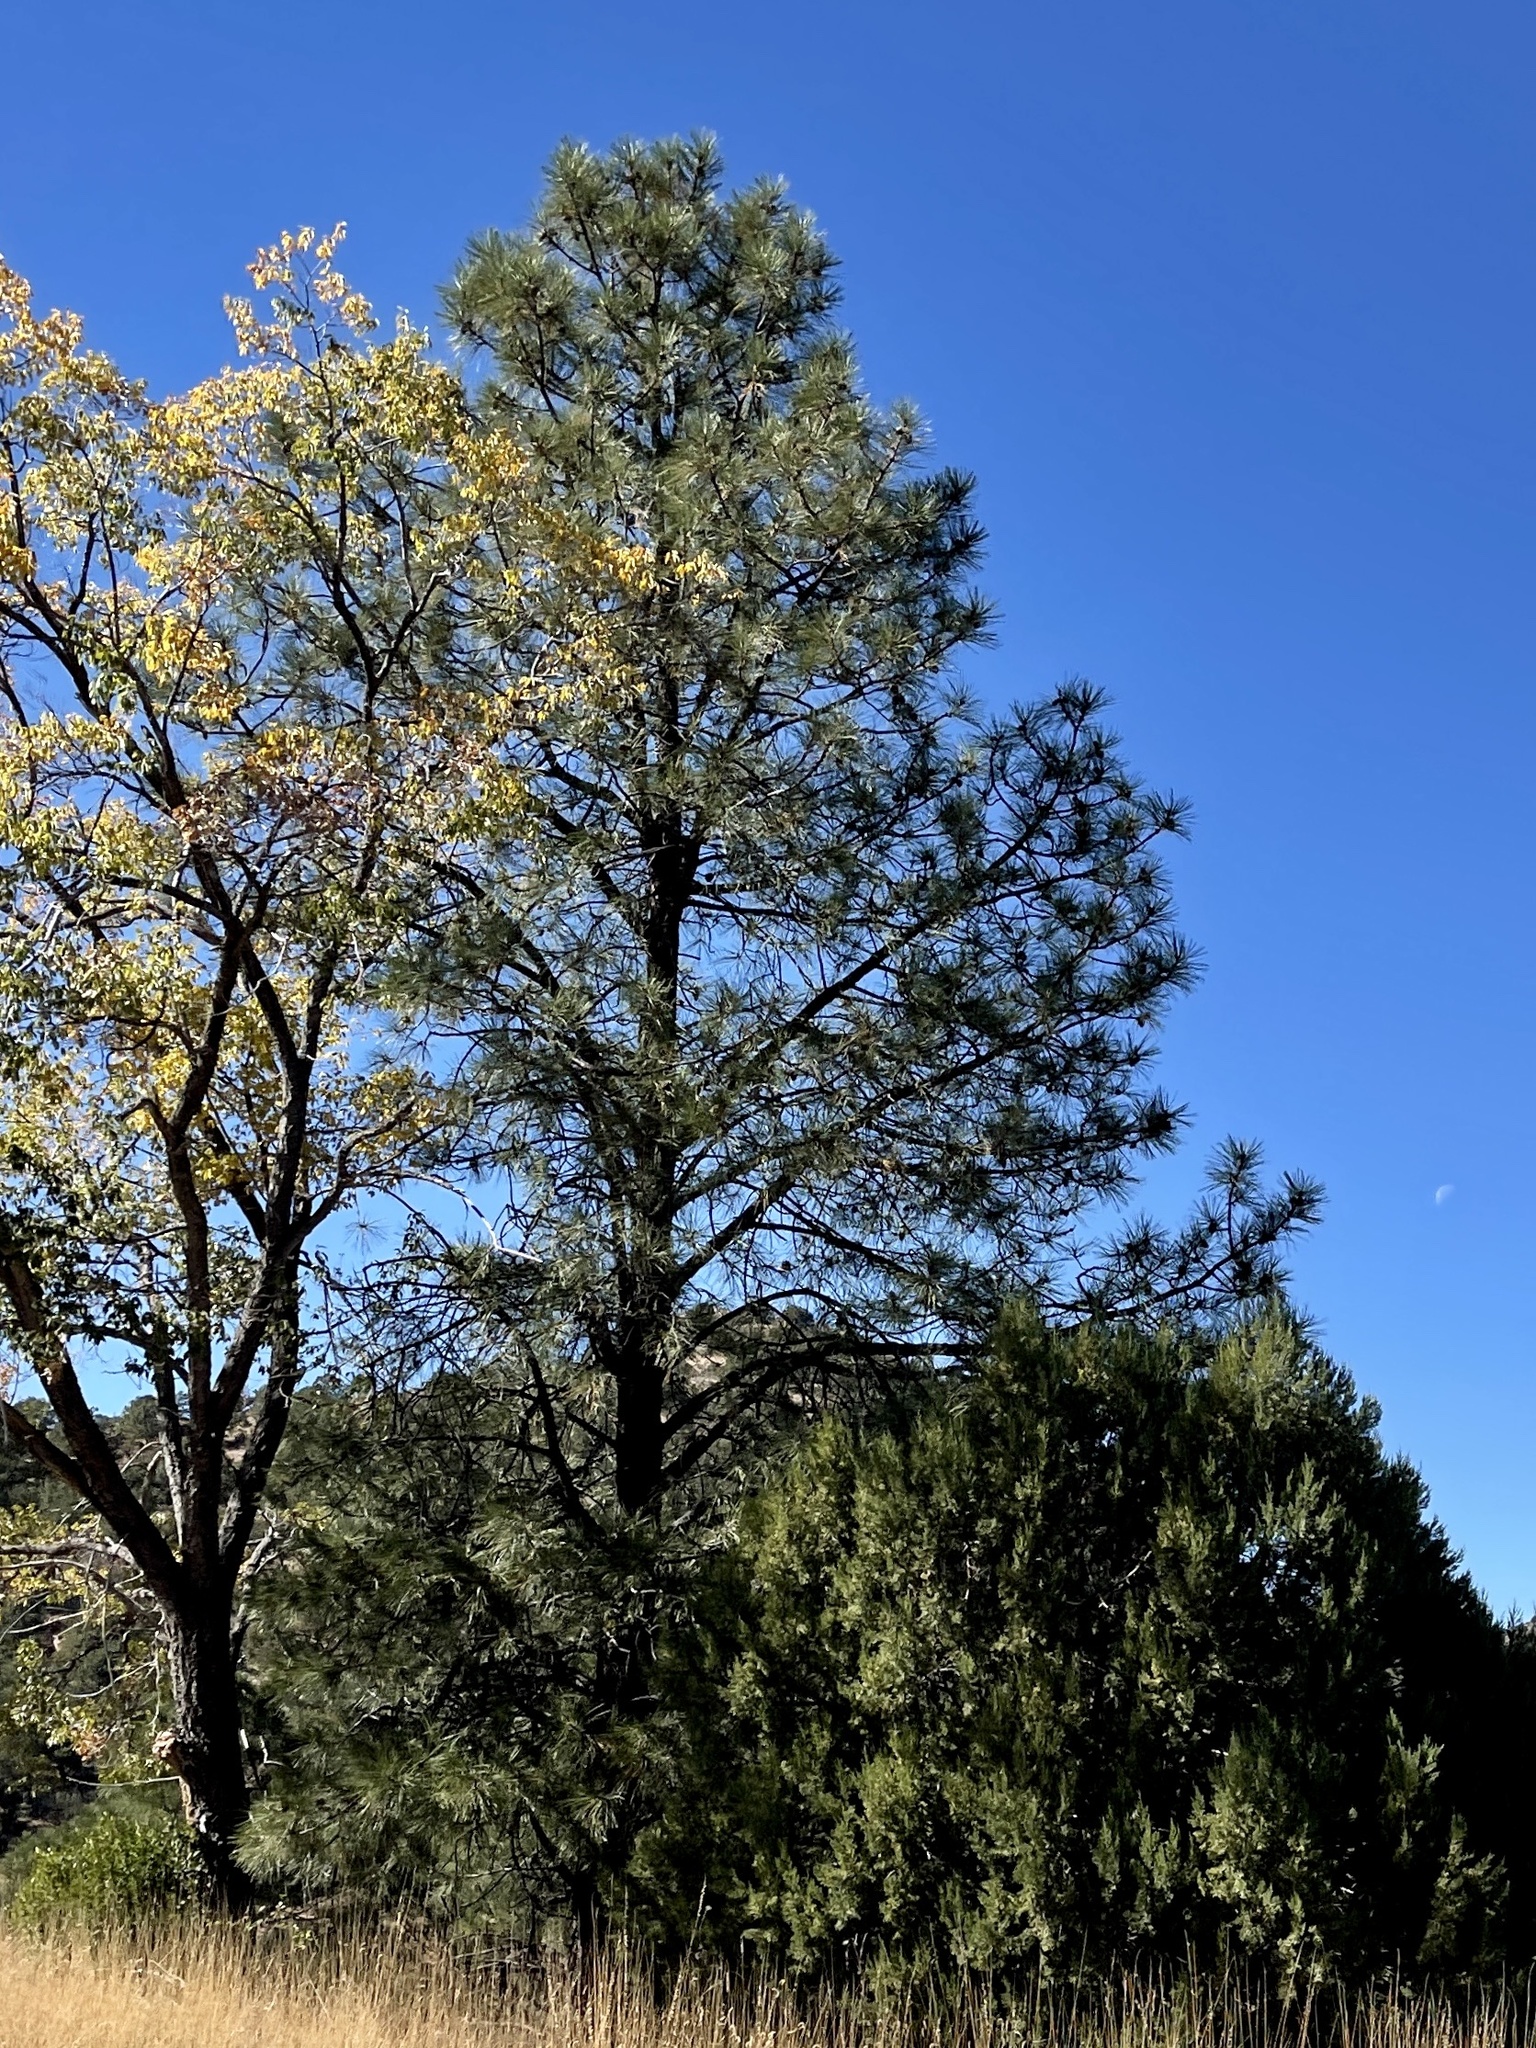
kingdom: Plantae
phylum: Tracheophyta
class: Pinopsida
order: Pinales
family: Pinaceae
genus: Pinus
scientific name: Pinus ponderosa
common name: Western yellow-pine
